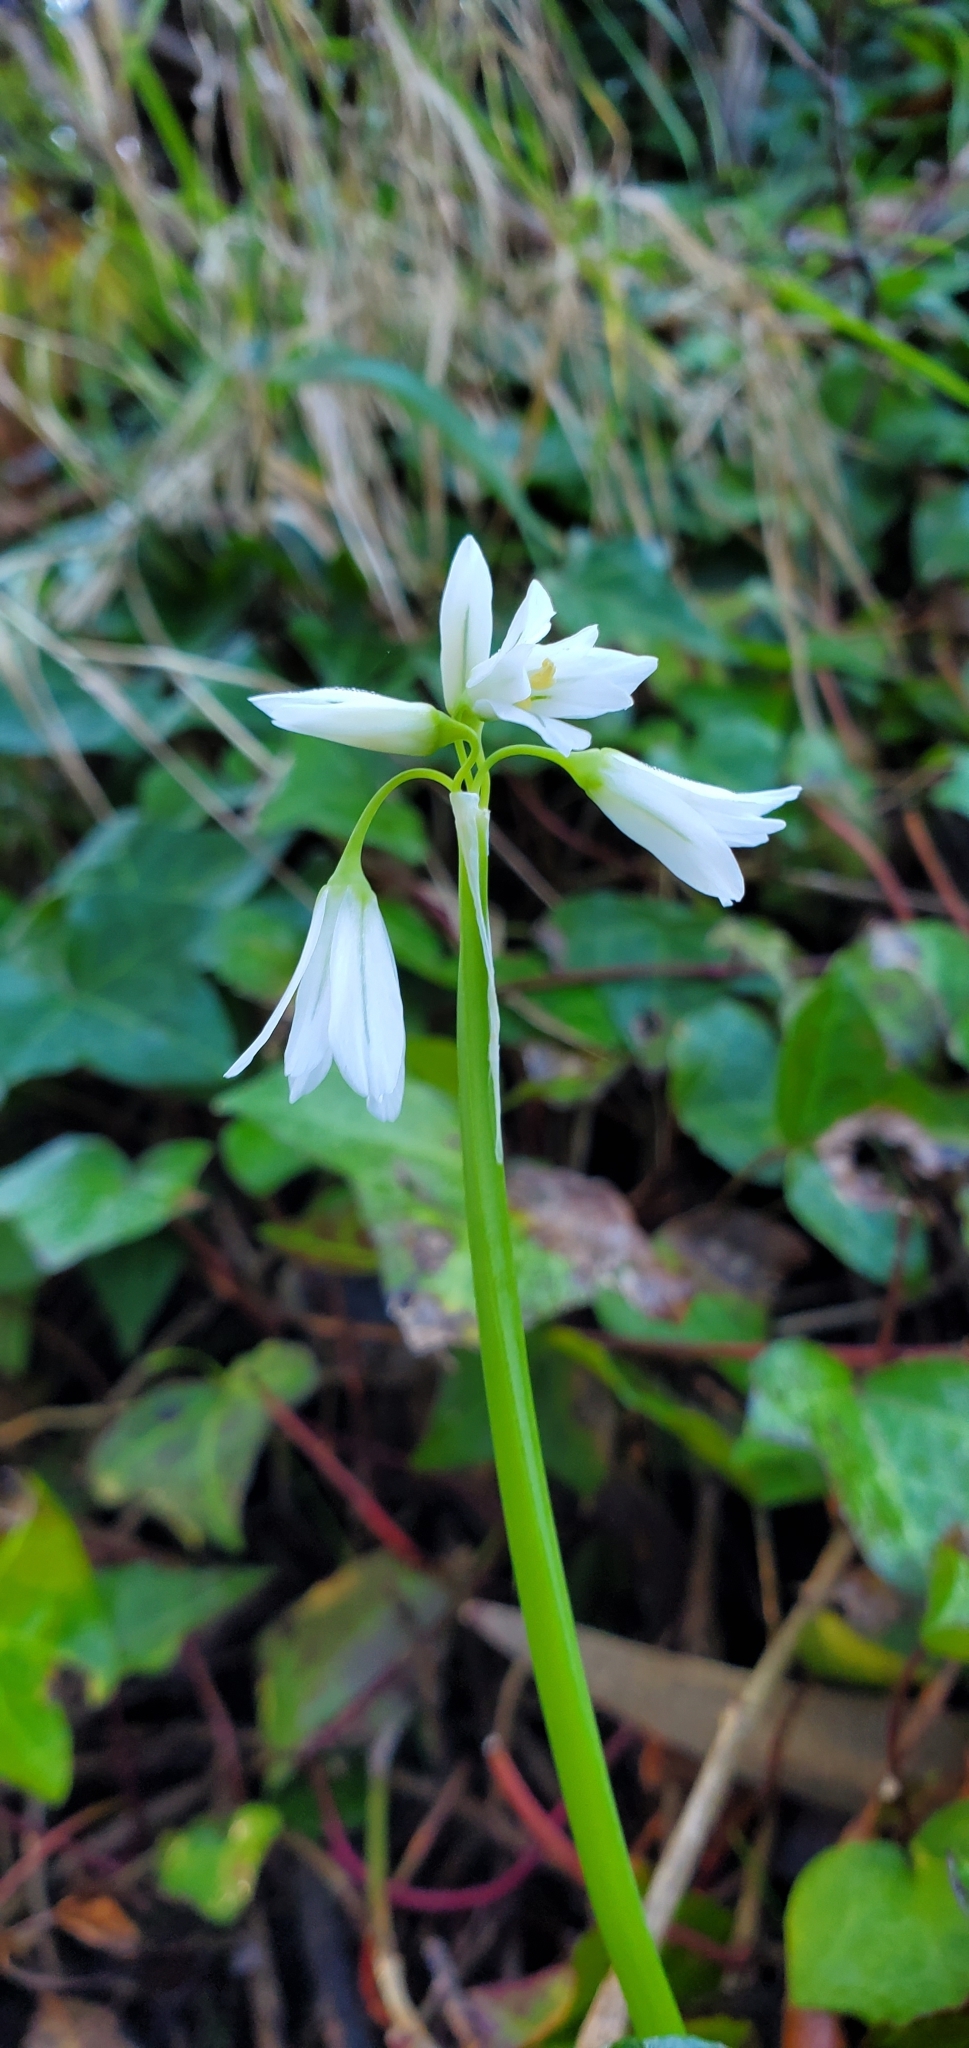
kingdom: Plantae
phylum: Tracheophyta
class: Liliopsida
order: Asparagales
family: Amaryllidaceae
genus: Allium
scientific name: Allium triquetrum
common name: Three-cornered garlic
